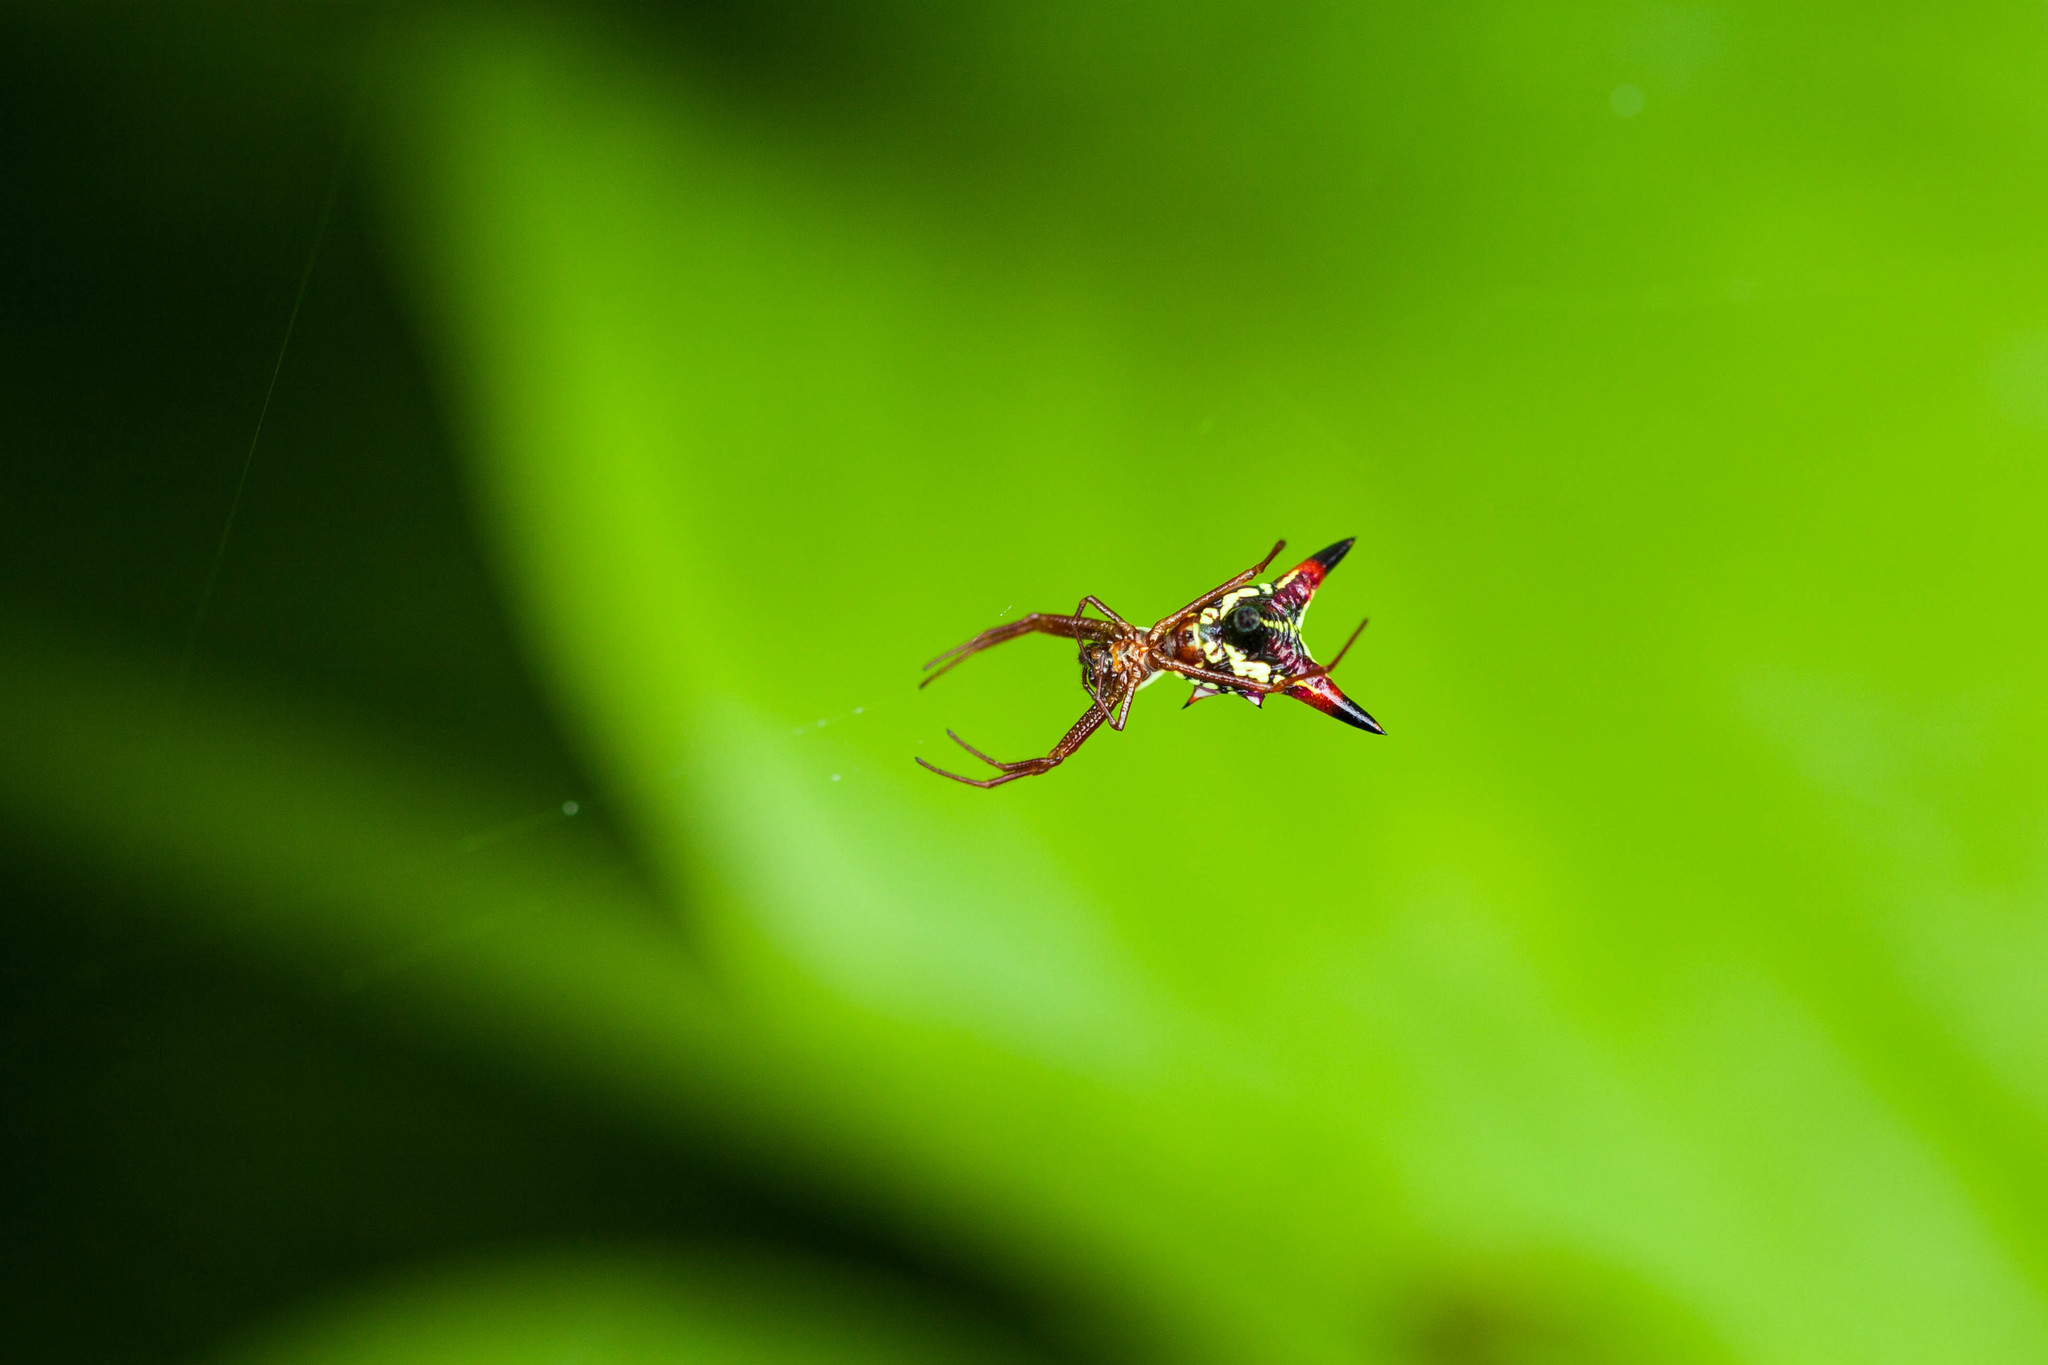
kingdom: Animalia
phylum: Arthropoda
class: Arachnida
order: Araneae
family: Araneidae
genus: Micrathena
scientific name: Micrathena sagittata
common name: Orb weavers
